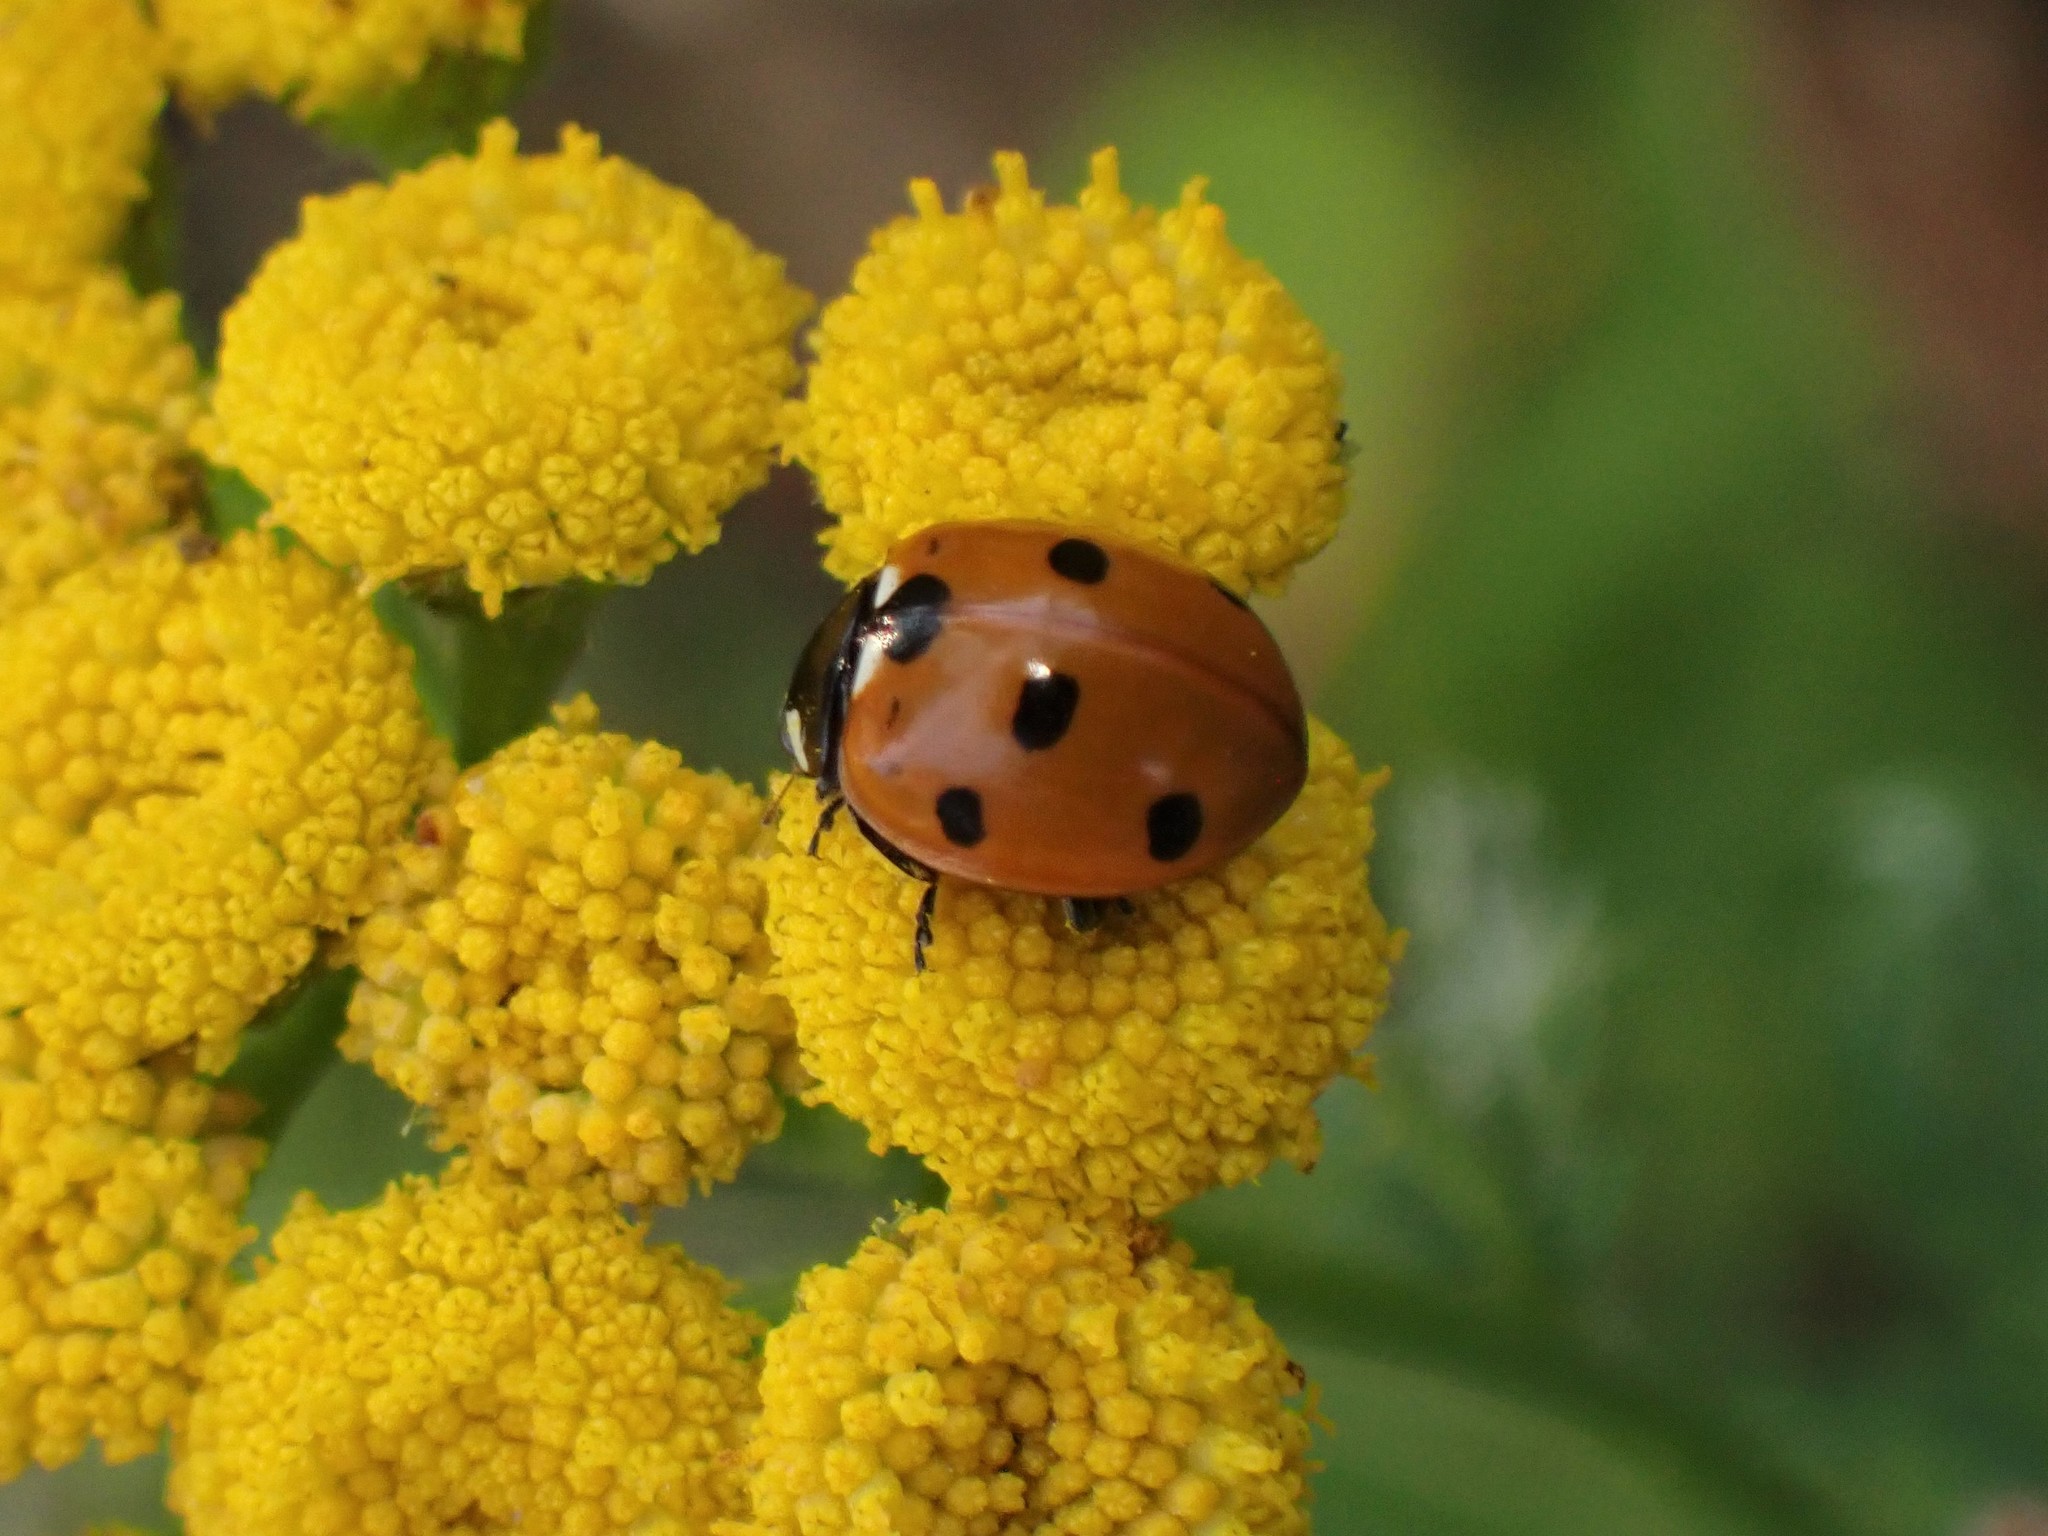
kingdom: Animalia
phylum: Arthropoda
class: Insecta
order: Coleoptera
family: Coccinellidae
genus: Coccinella
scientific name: Coccinella septempunctata
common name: Sevenspotted lady beetle
